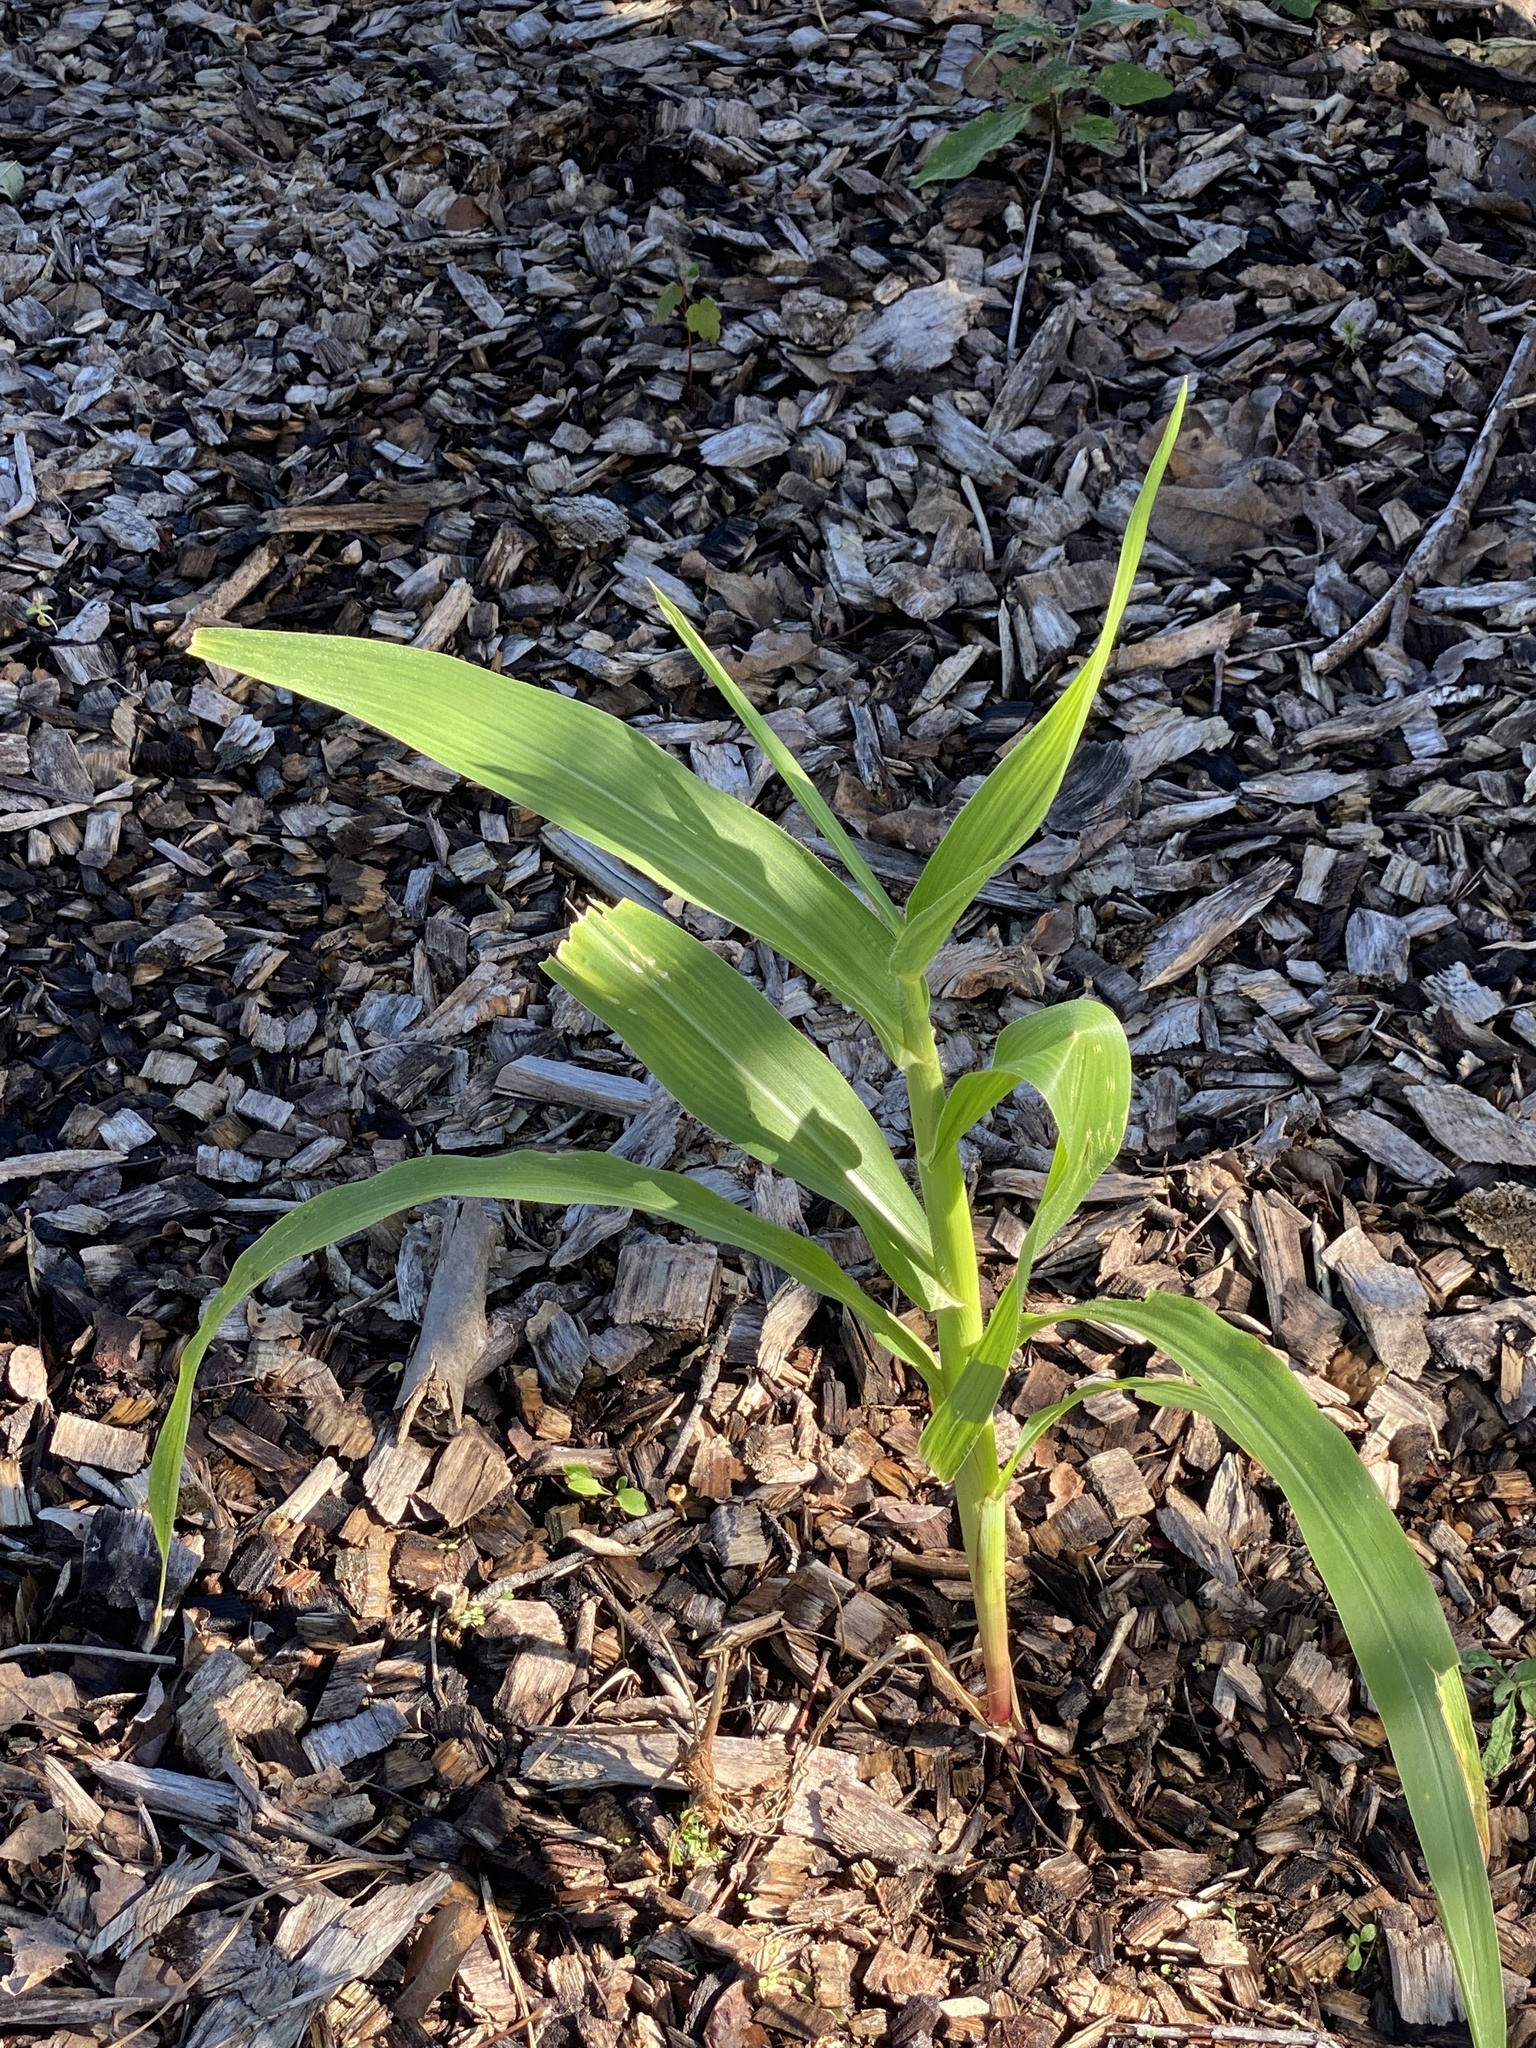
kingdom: Plantae
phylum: Tracheophyta
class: Liliopsida
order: Poales
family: Poaceae
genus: Zea
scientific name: Zea mays
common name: Maize
